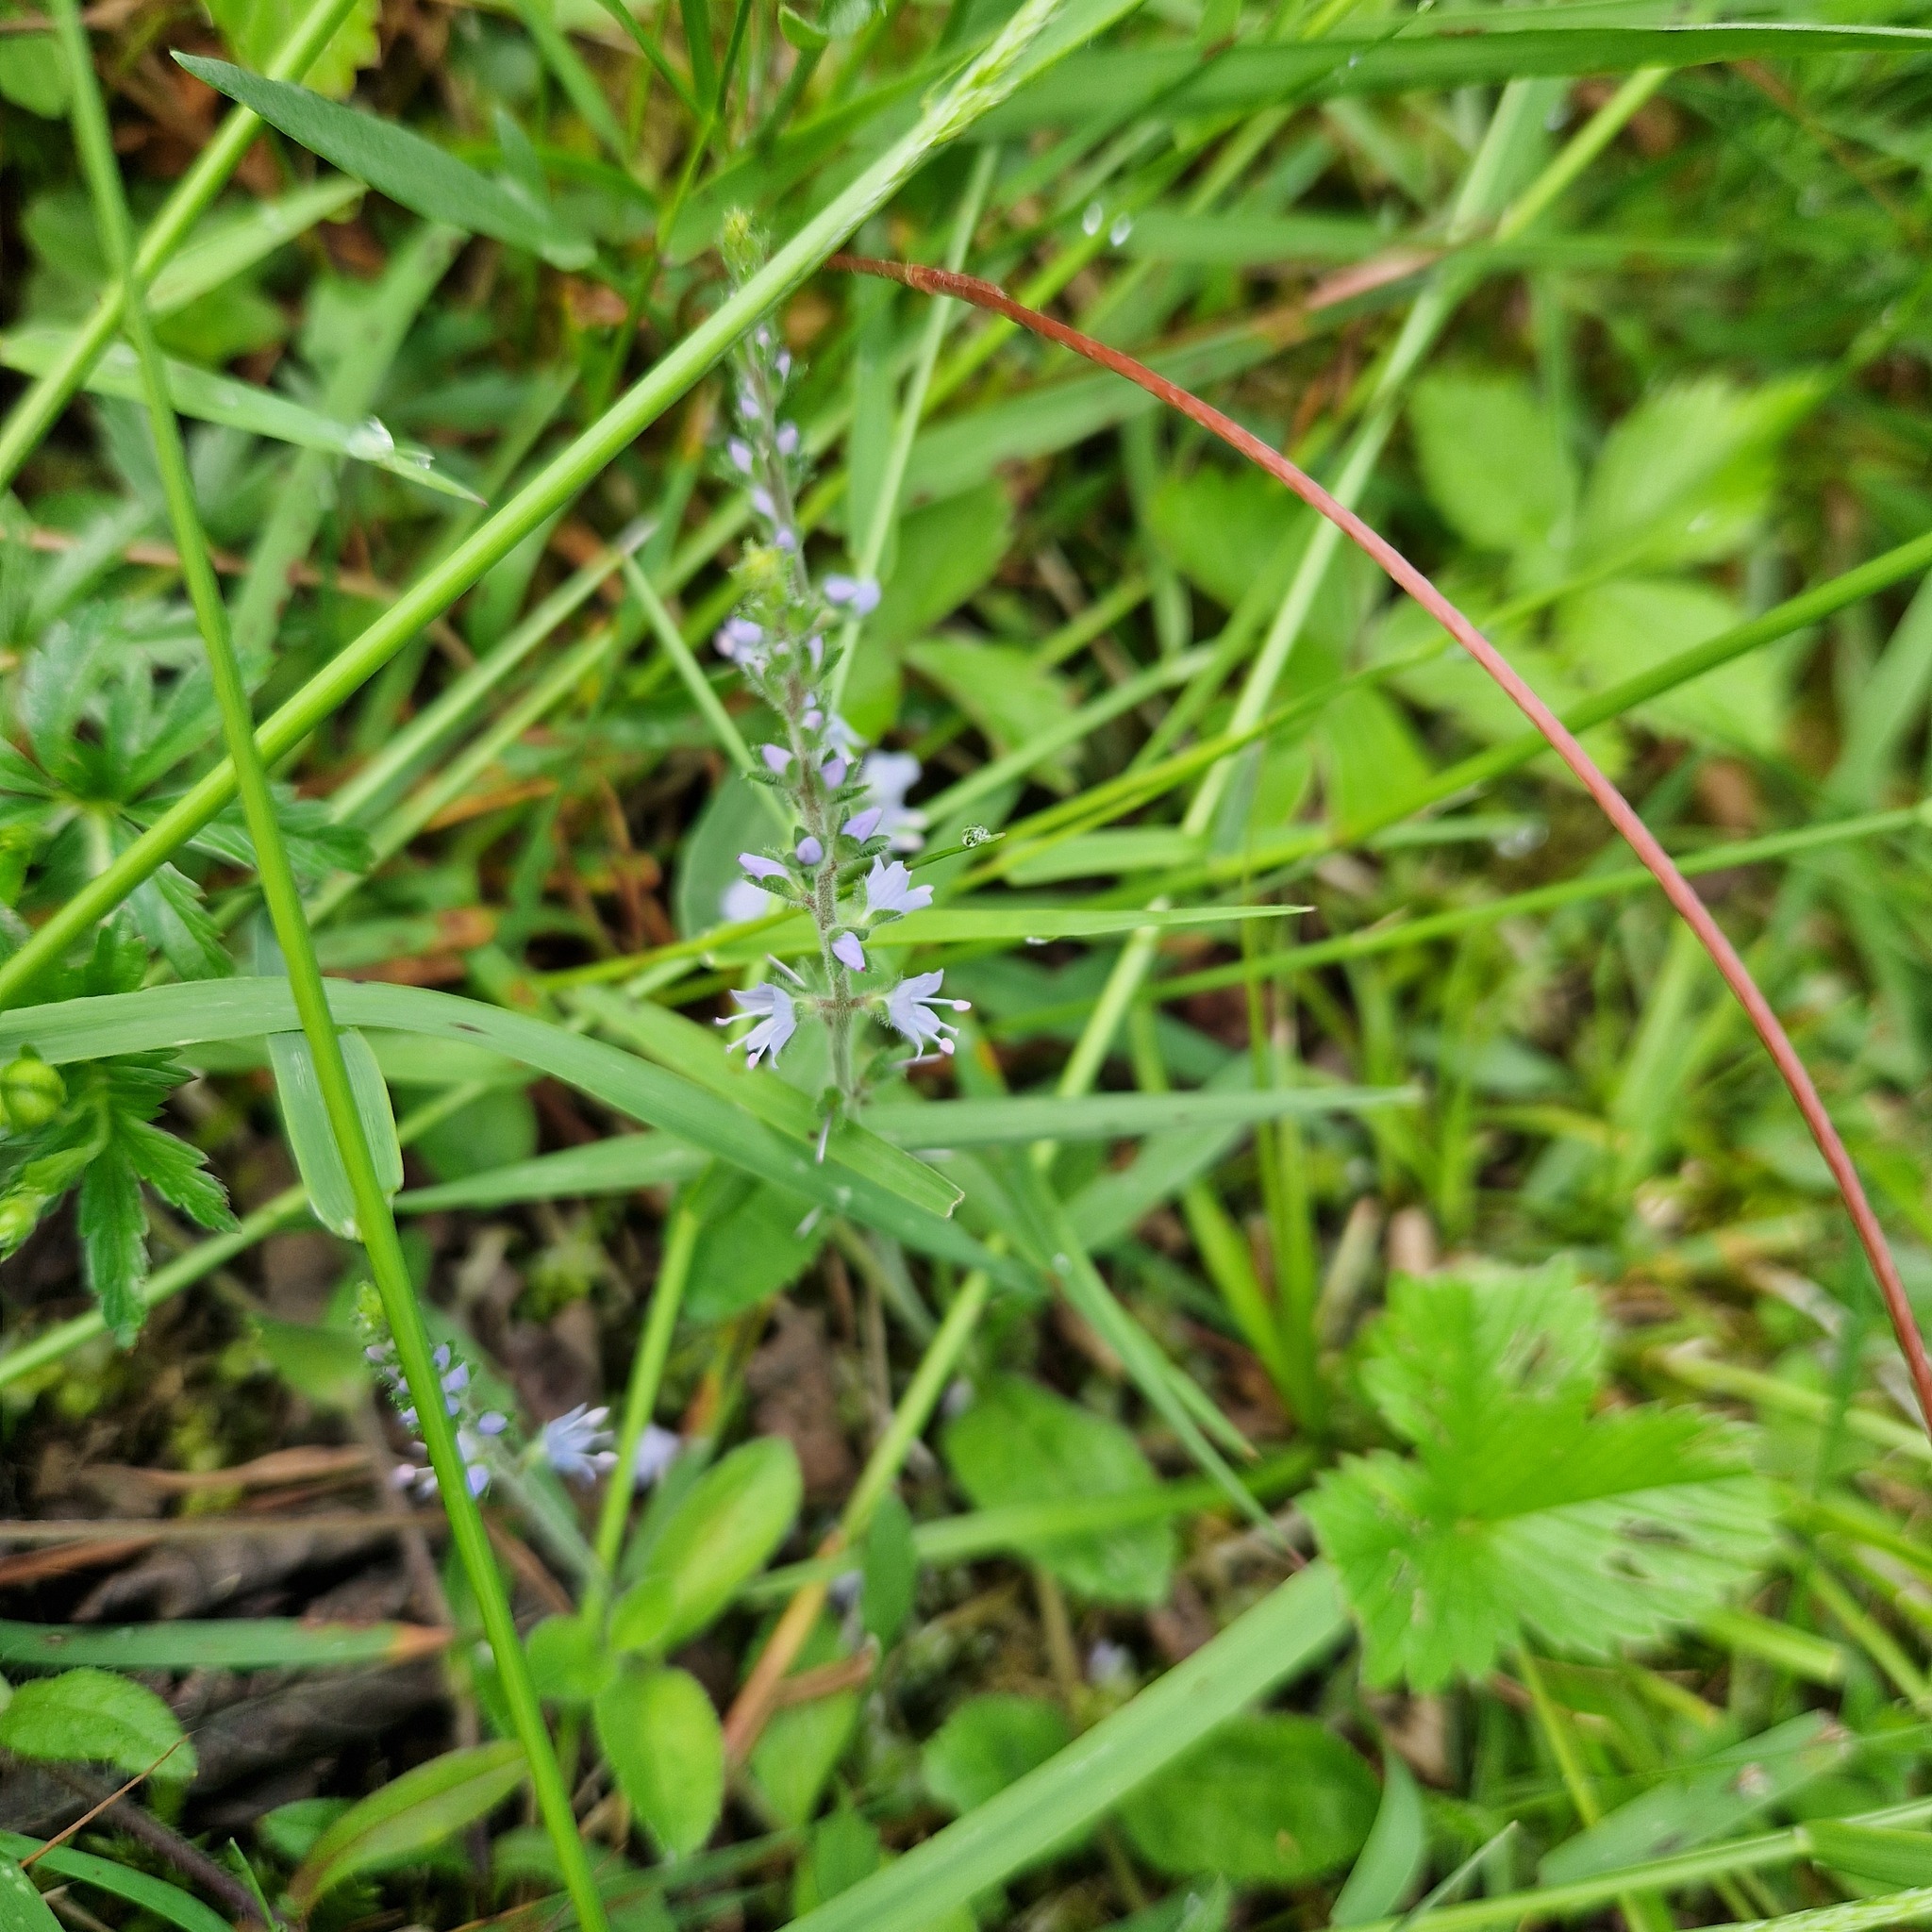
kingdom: Plantae
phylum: Tracheophyta
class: Magnoliopsida
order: Lamiales
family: Plantaginaceae
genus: Veronica
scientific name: Veronica officinalis
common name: Common speedwell
